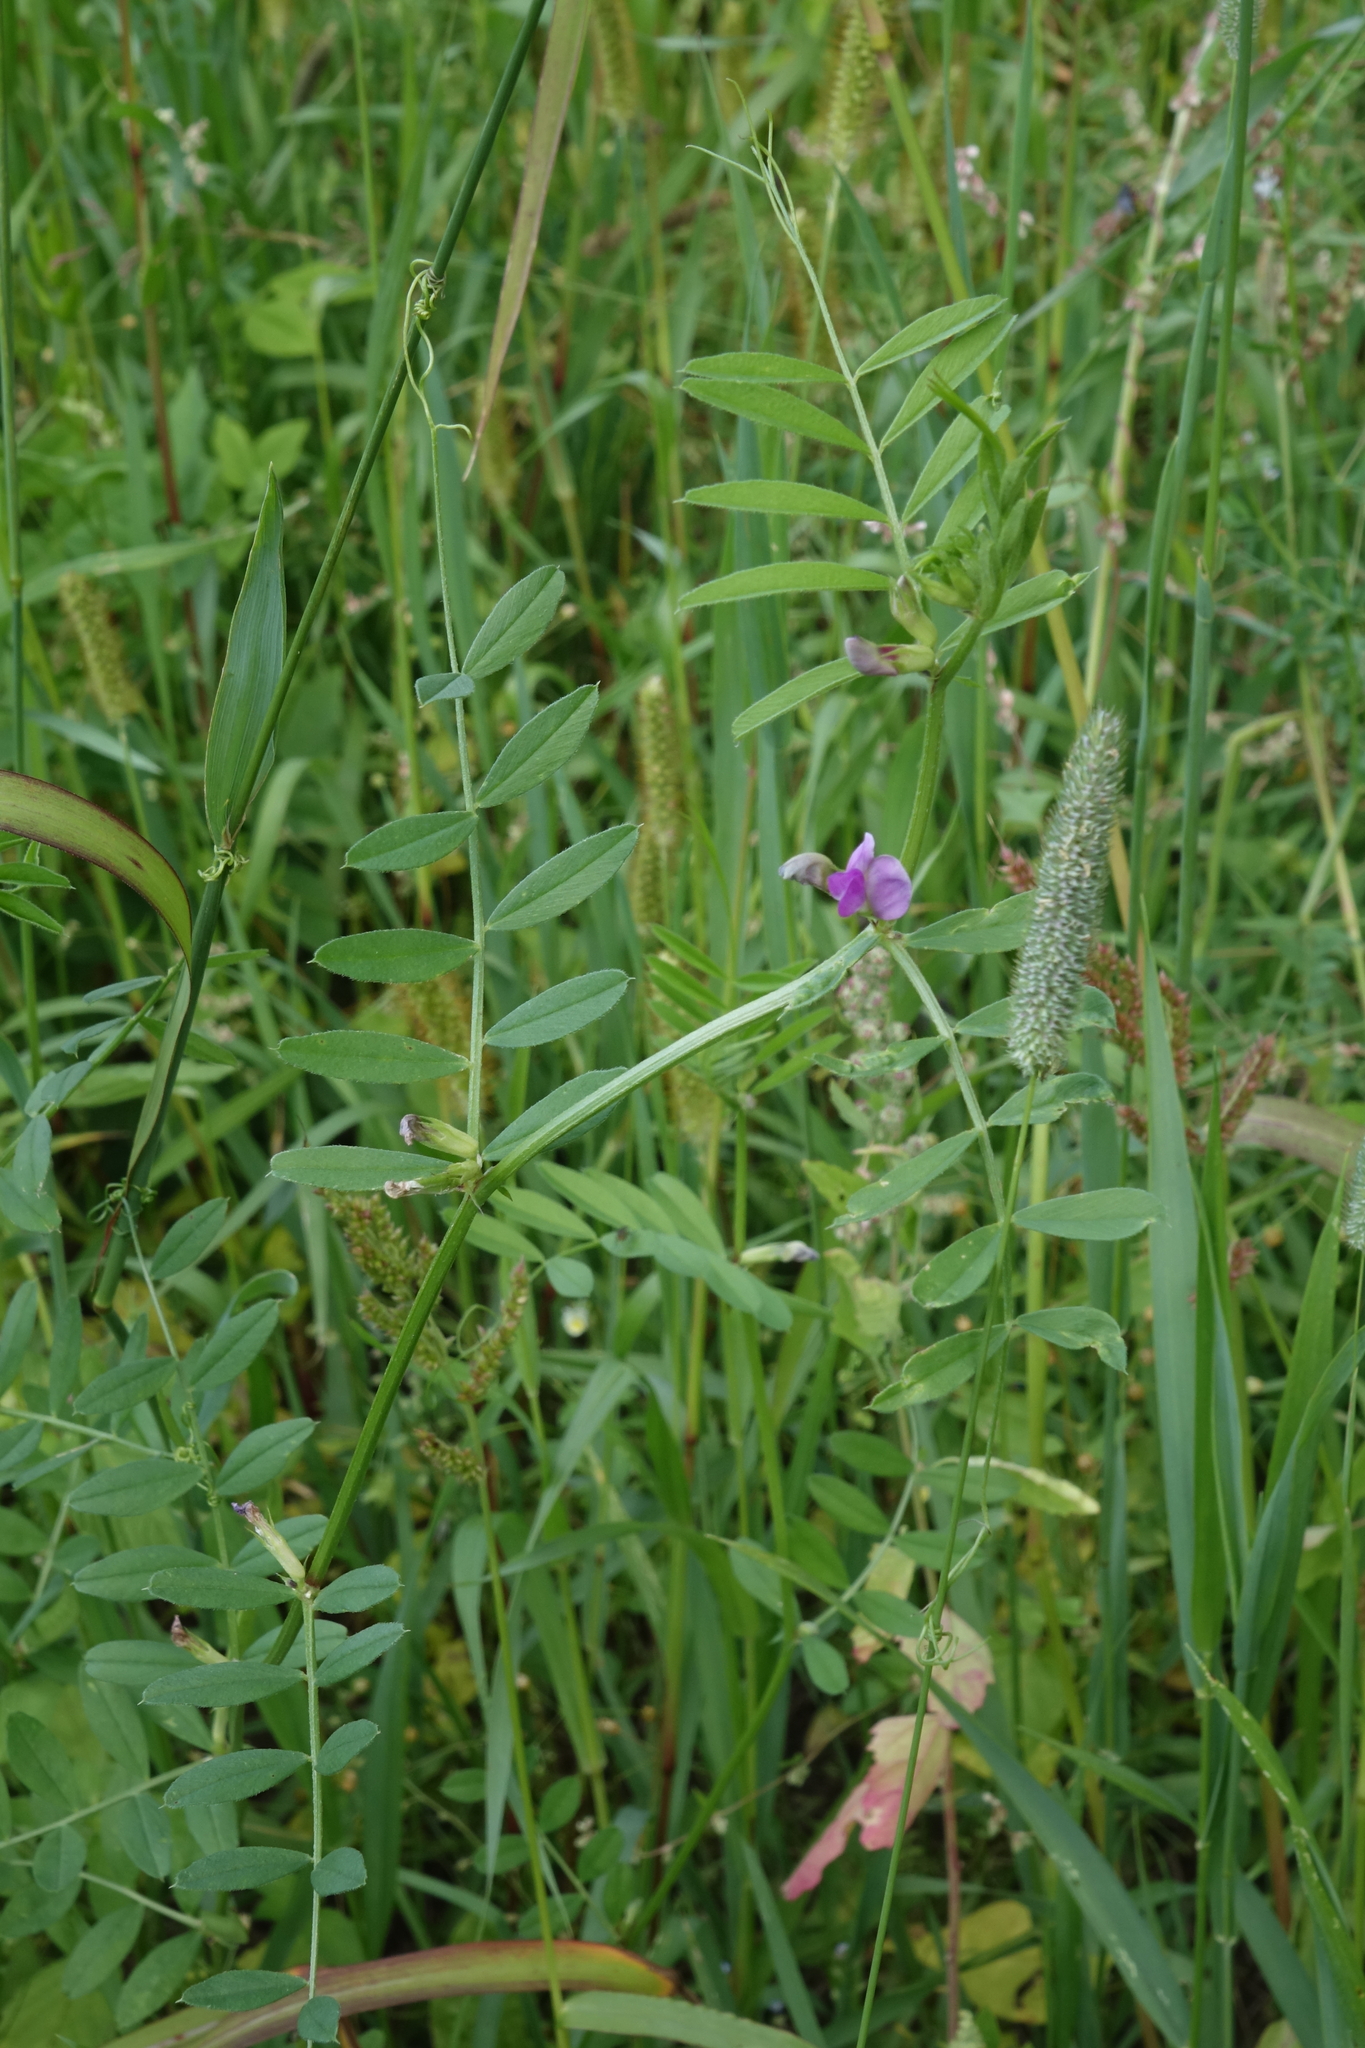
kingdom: Plantae
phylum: Tracheophyta
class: Magnoliopsida
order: Fabales
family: Fabaceae
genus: Vicia
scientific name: Vicia sativa
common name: Garden vetch
